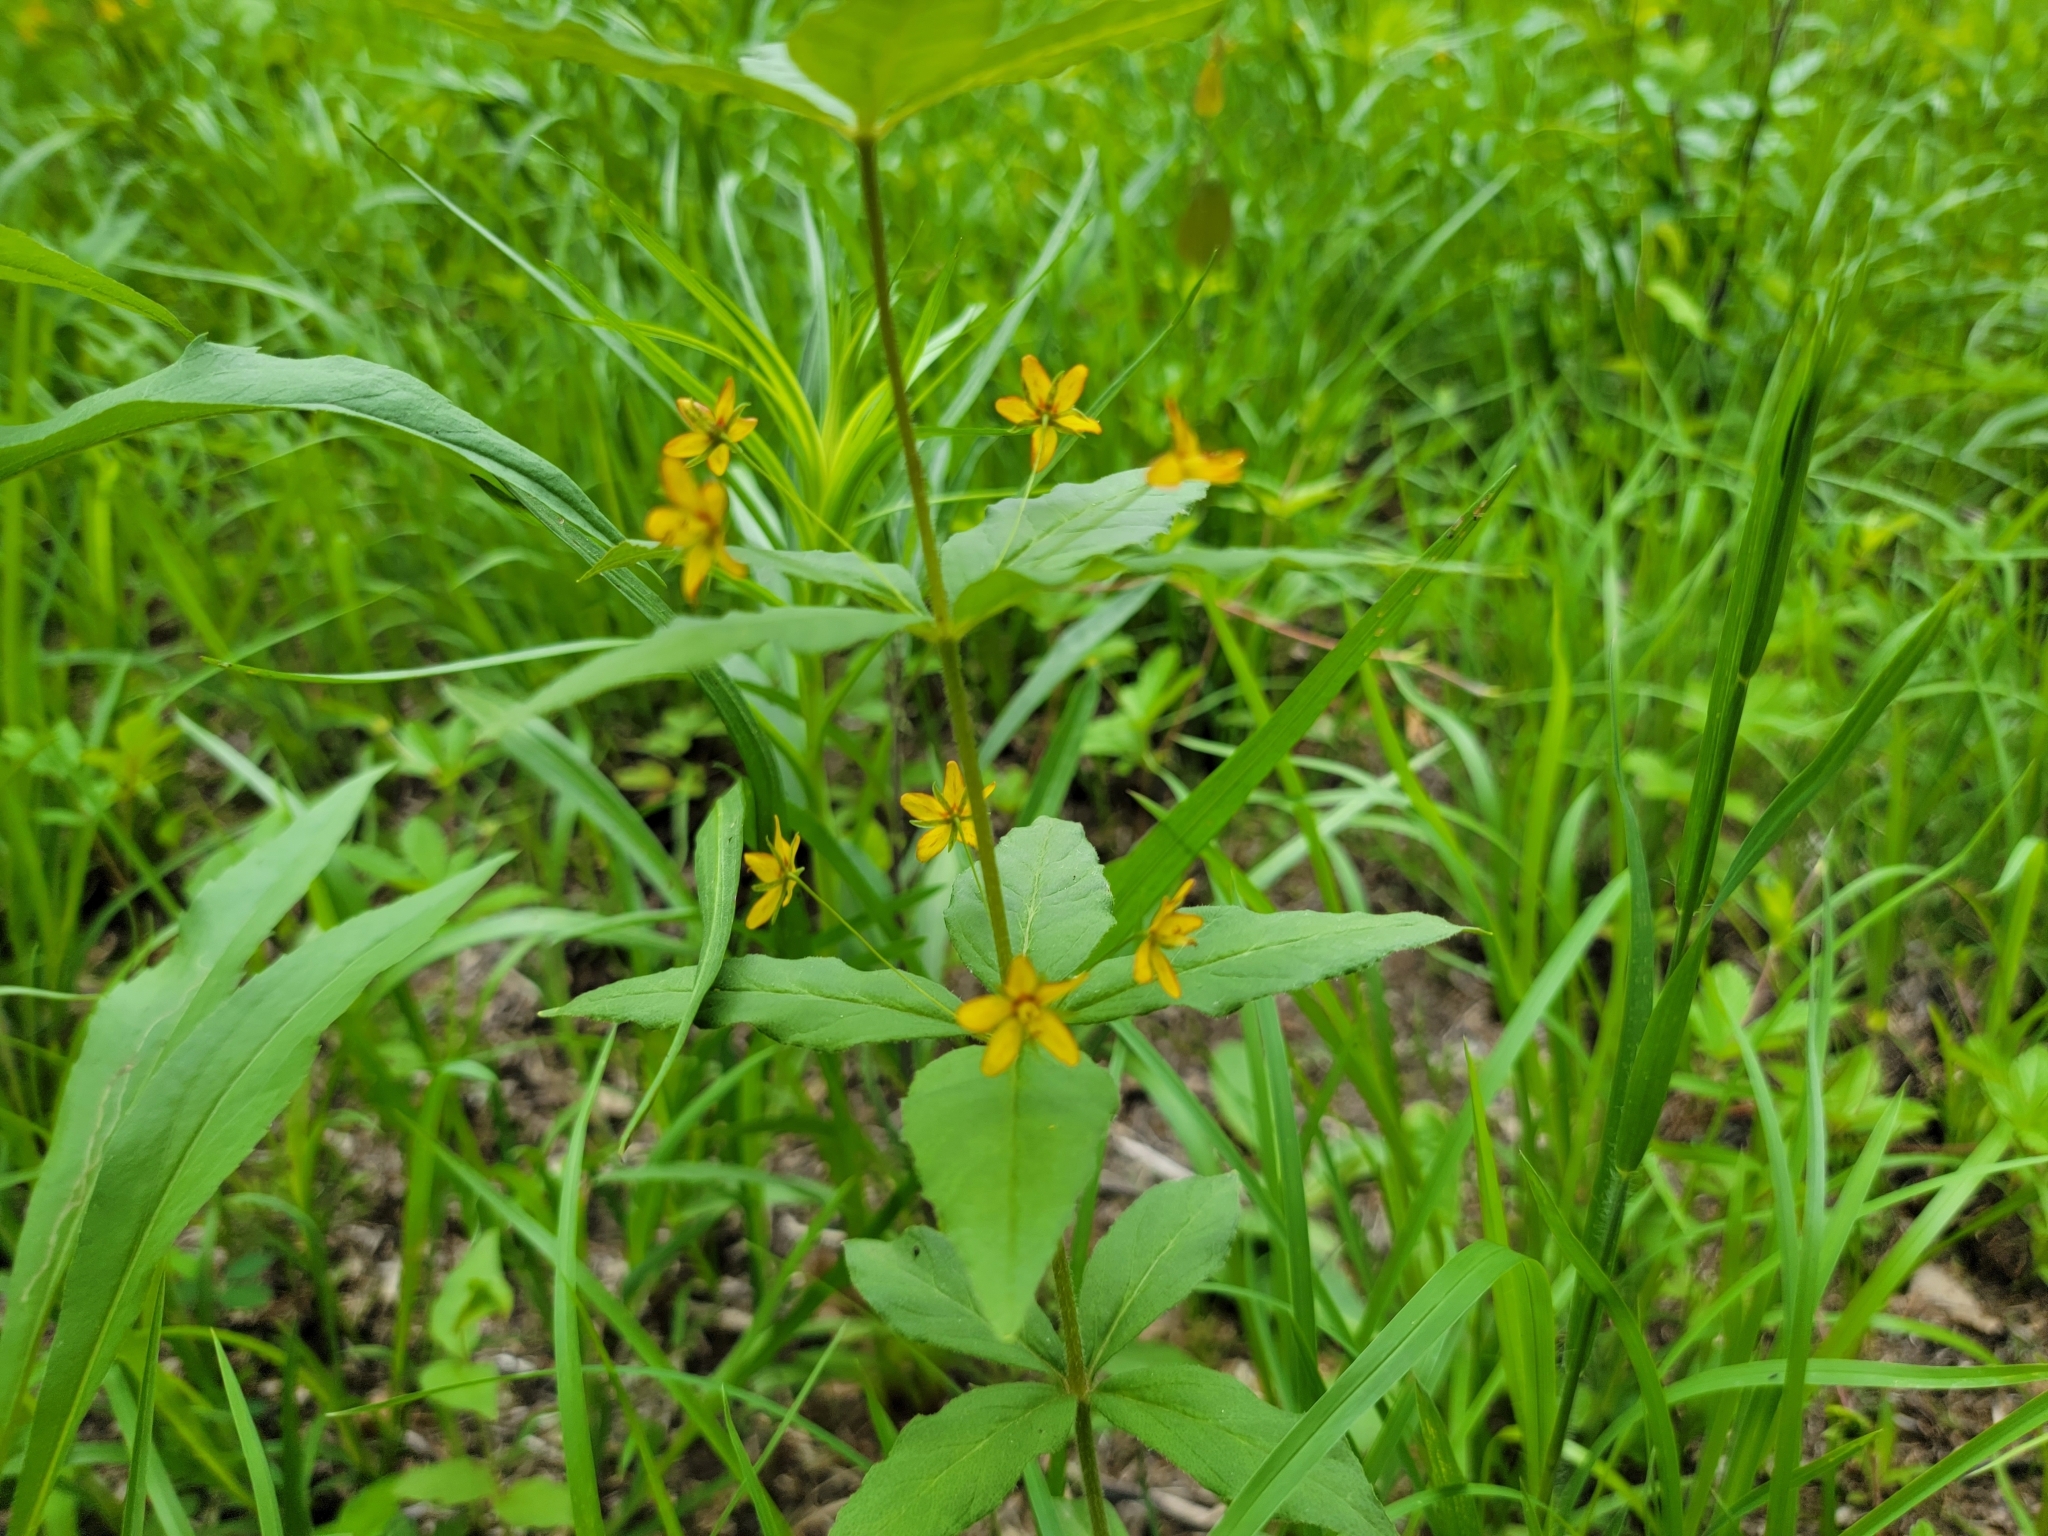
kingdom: Plantae
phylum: Tracheophyta
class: Magnoliopsida
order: Ericales
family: Primulaceae
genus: Lysimachia
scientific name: Lysimachia quadrifolia
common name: Whorled loosestrife
